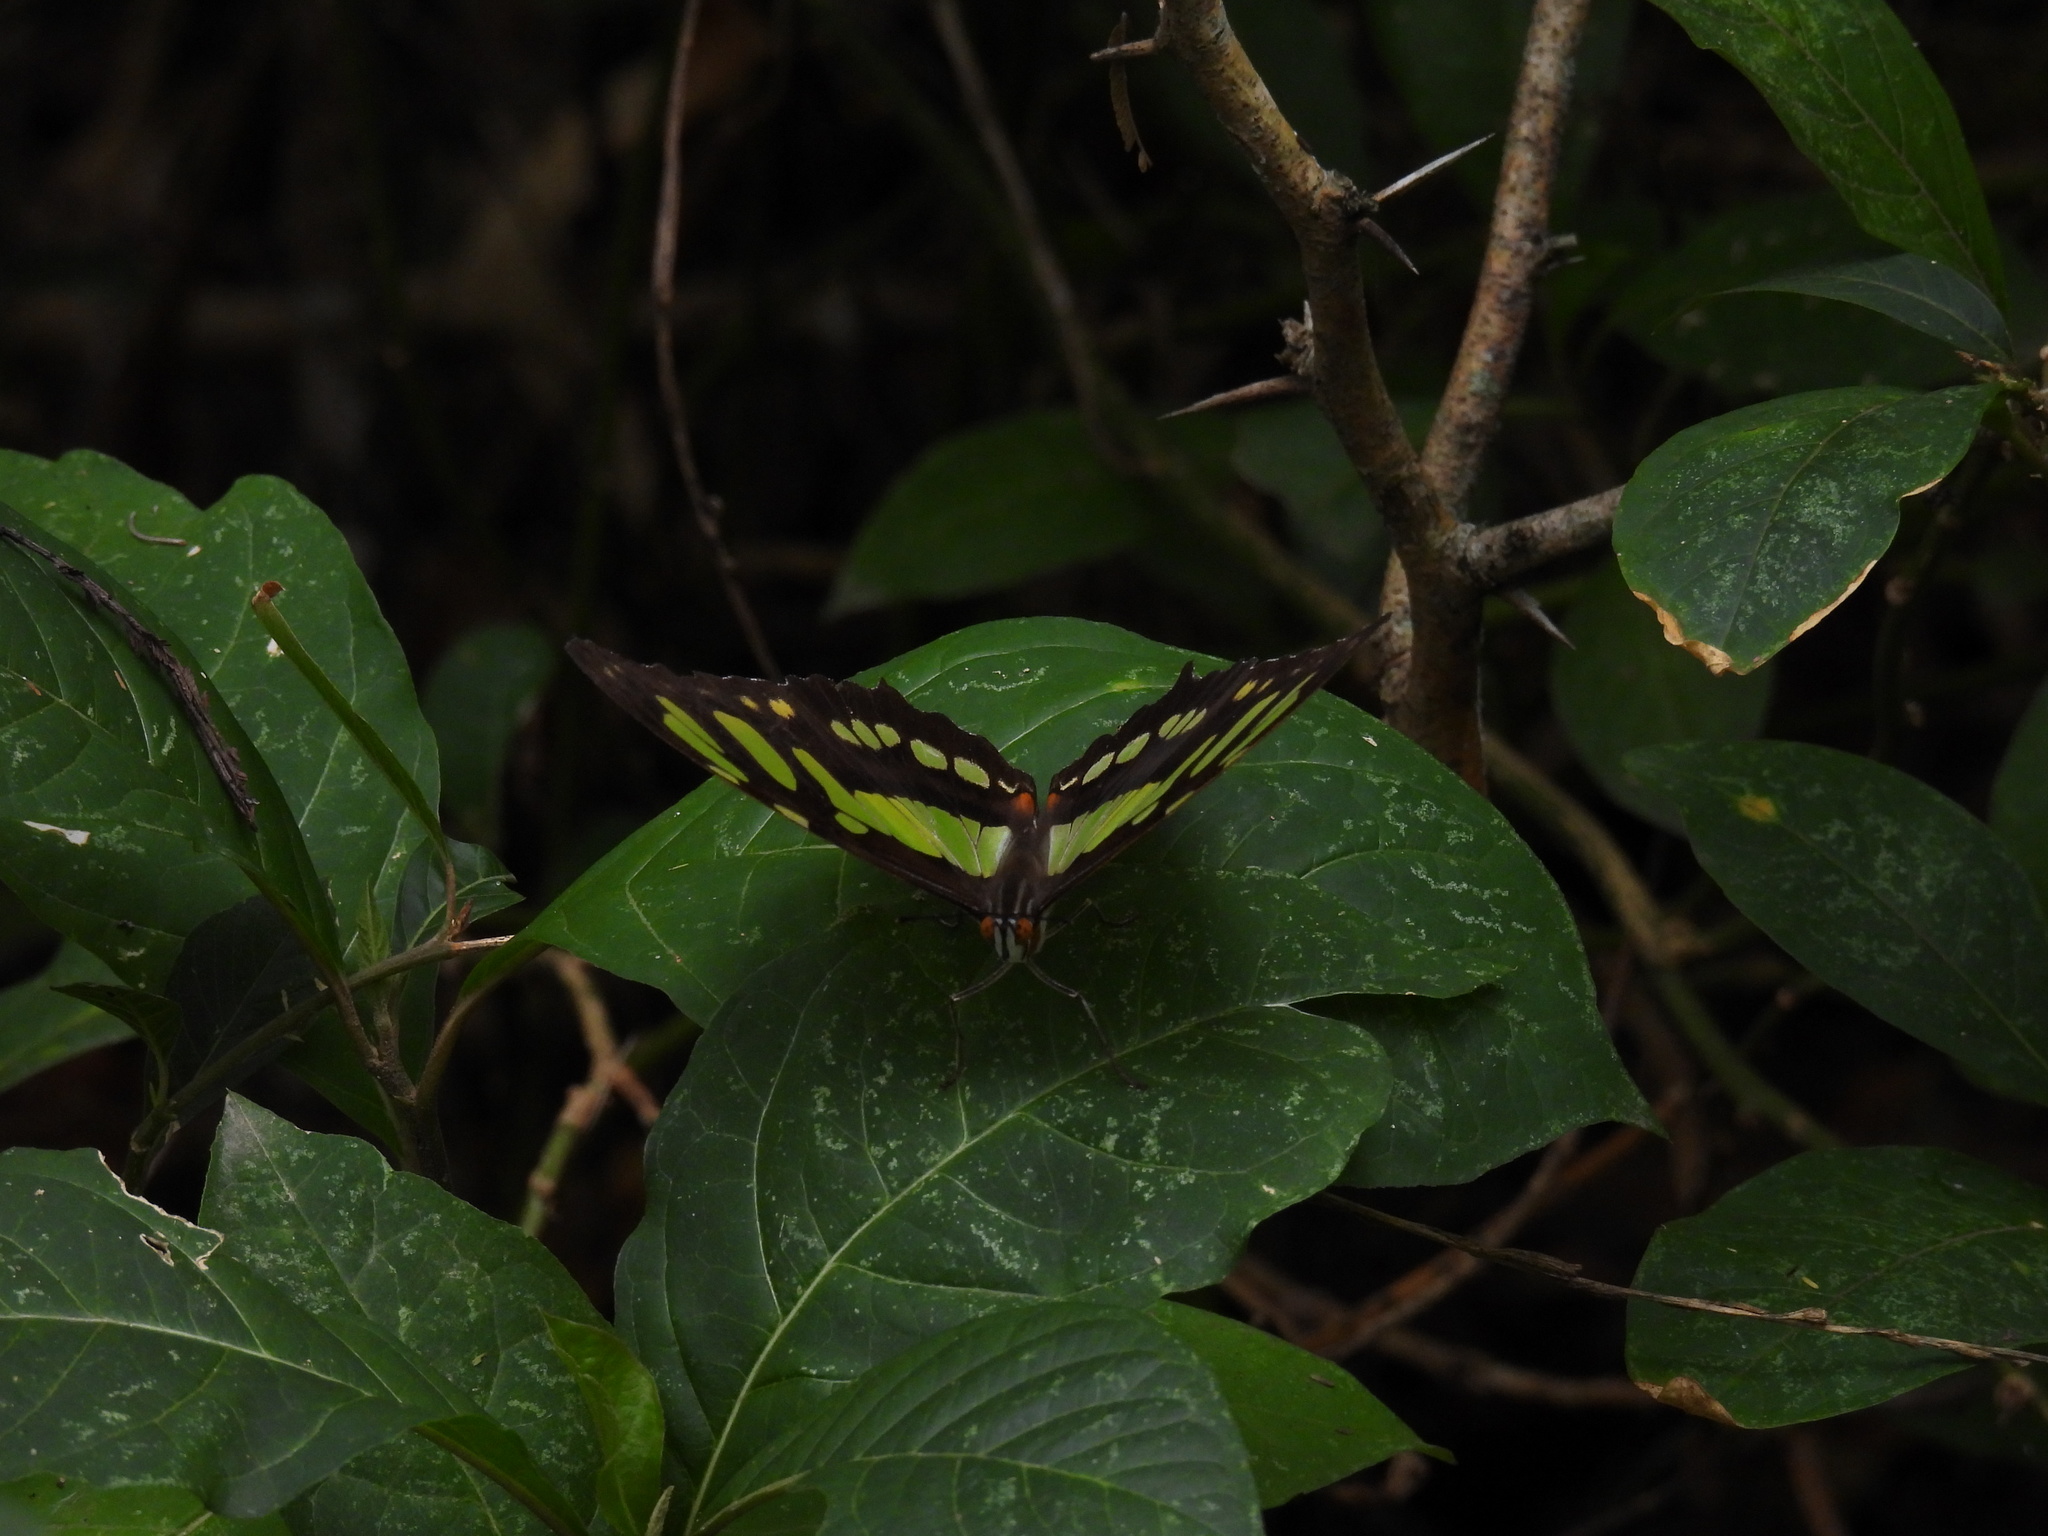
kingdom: Animalia
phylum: Arthropoda
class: Insecta
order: Lepidoptera
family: Nymphalidae
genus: Siproeta
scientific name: Siproeta stelenes
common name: Malachite
